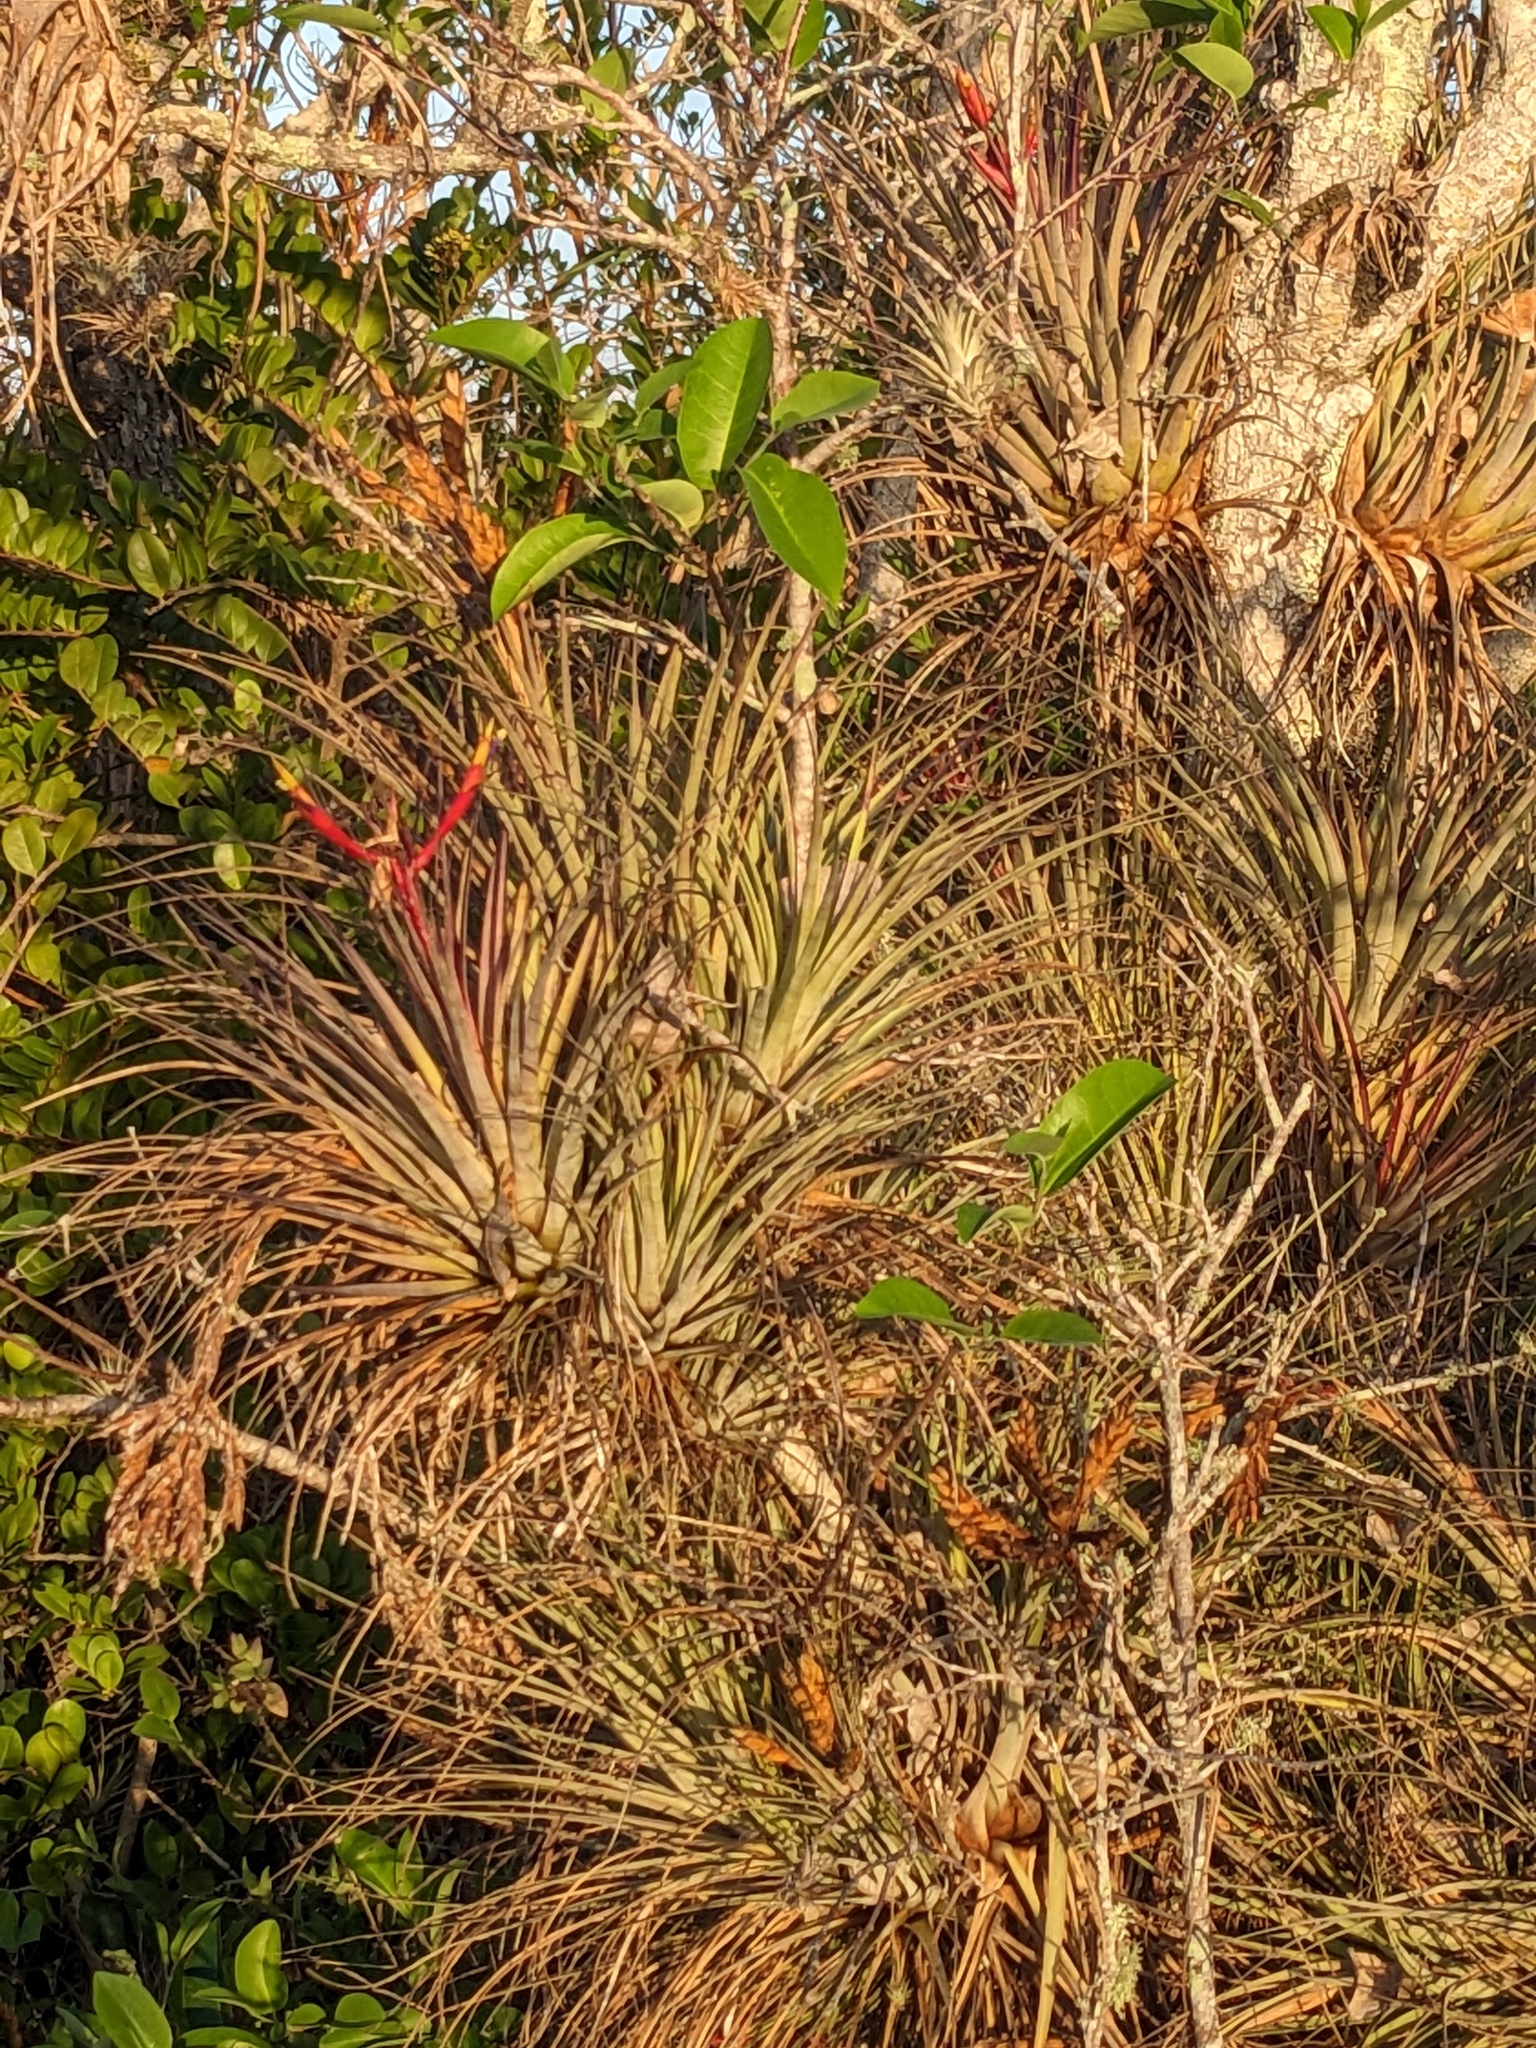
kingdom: Plantae
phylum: Tracheophyta
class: Liliopsida
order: Poales
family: Bromeliaceae
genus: Tillandsia
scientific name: Tillandsia fasciculata
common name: Giant airplant
